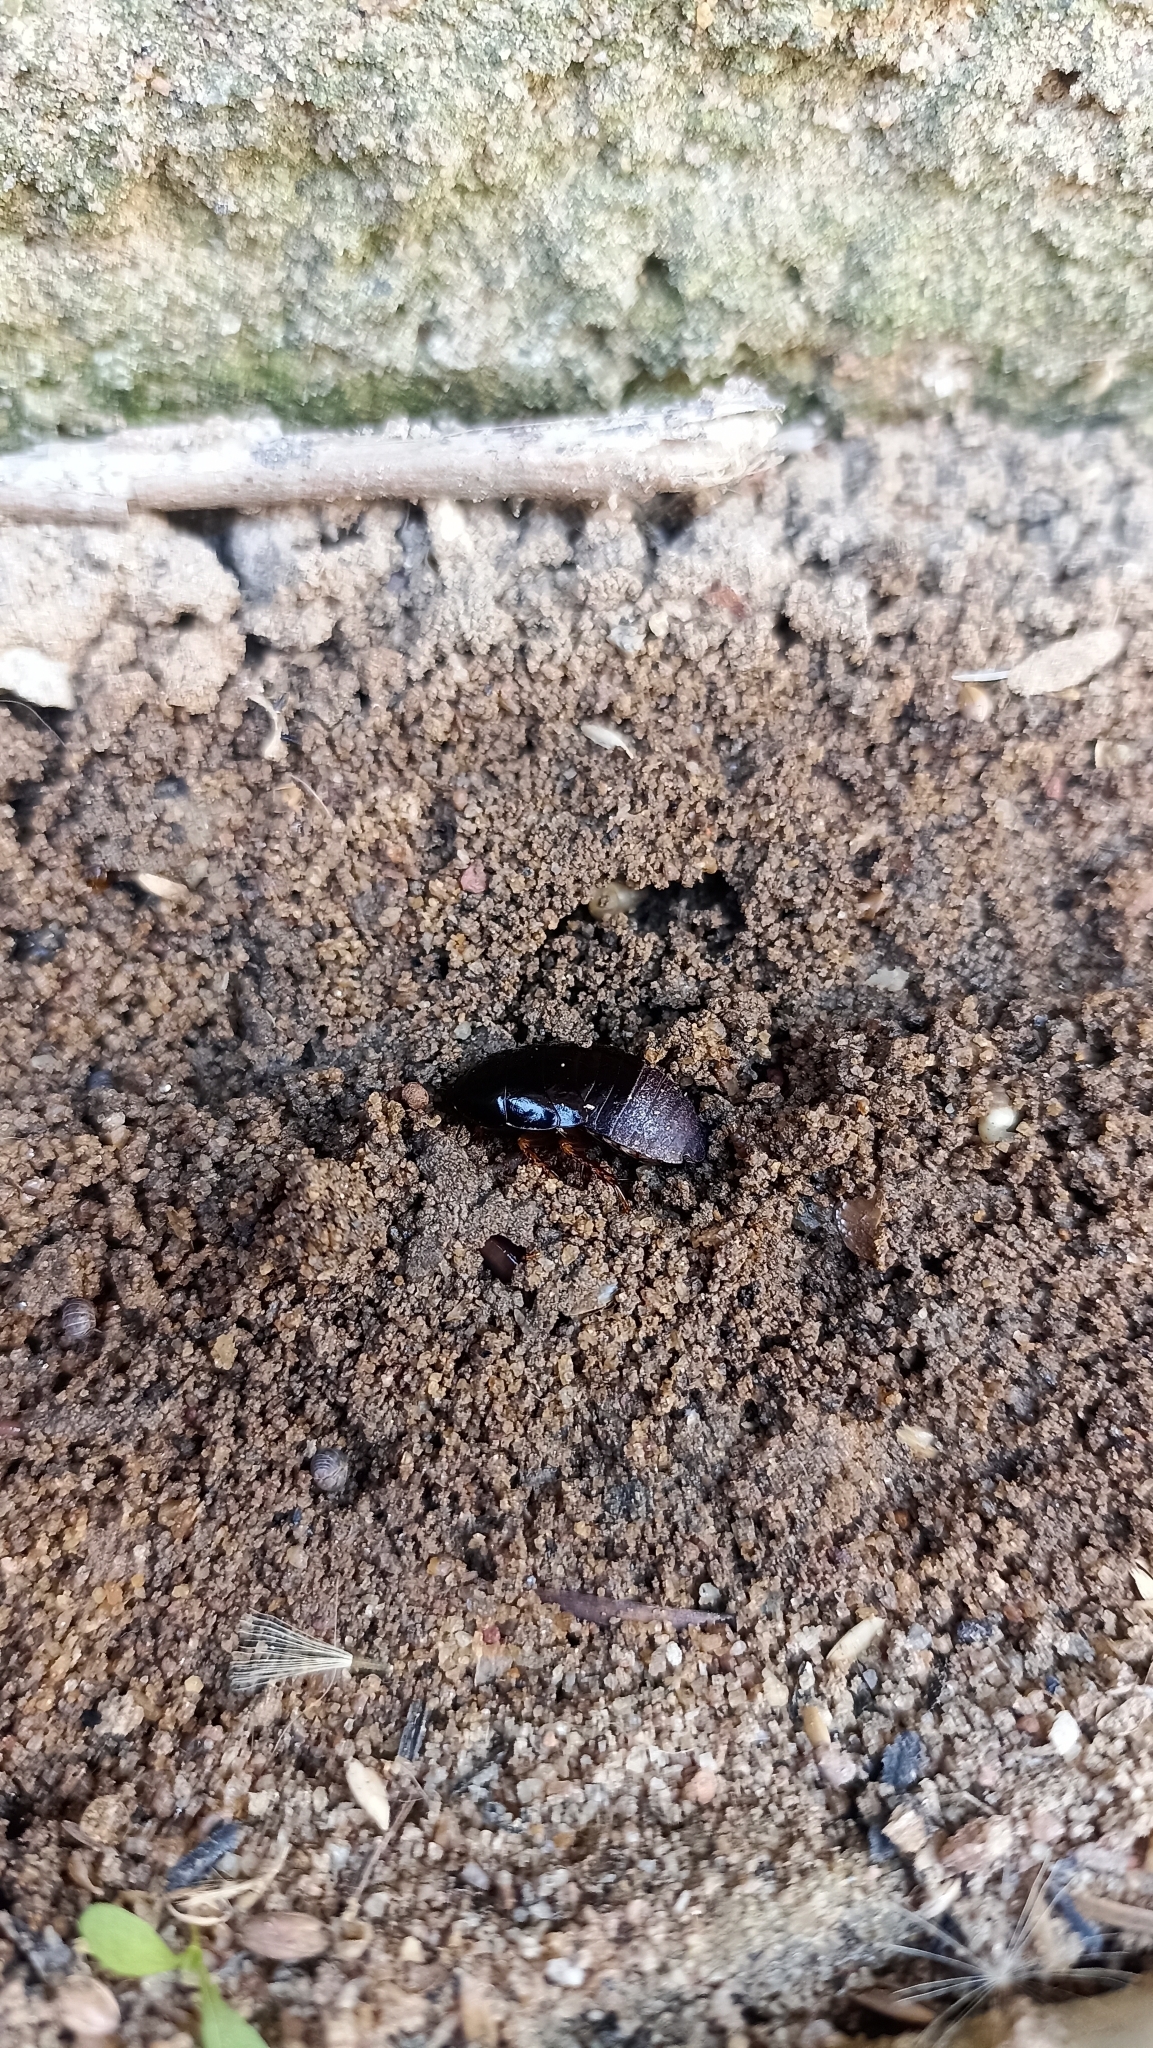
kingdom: Animalia
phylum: Arthropoda
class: Insecta
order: Blattodea
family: Blaberidae
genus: Pycnoscelus
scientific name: Pycnoscelus surinamensis
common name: Surinam cockroach
